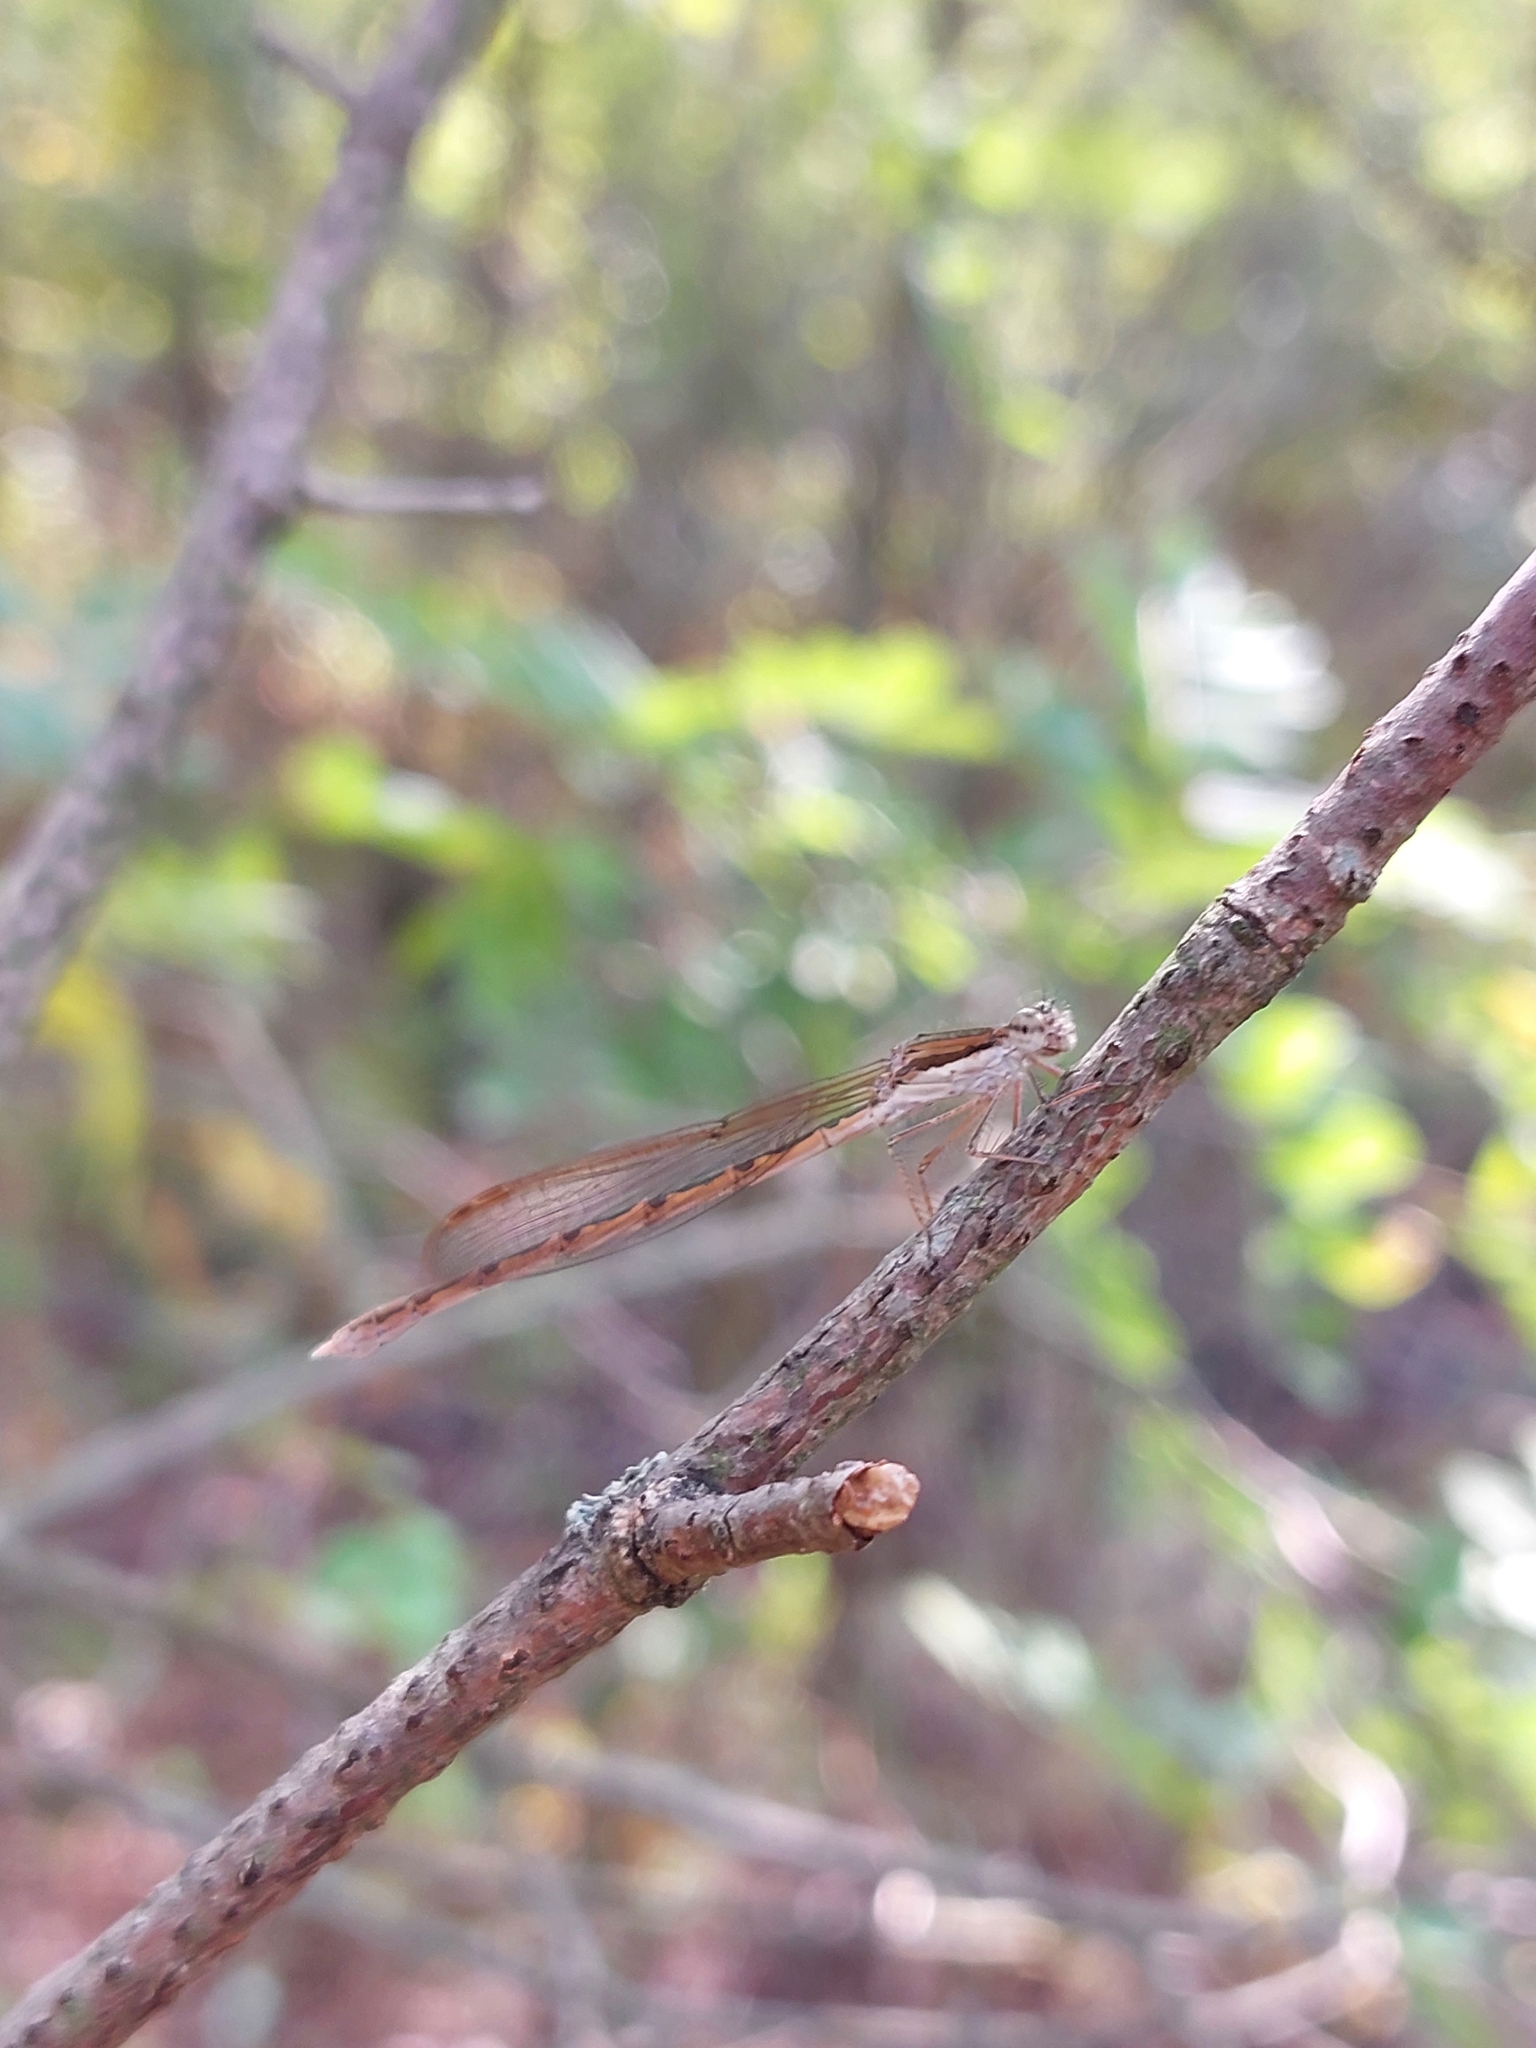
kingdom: Animalia
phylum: Arthropoda
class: Insecta
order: Odonata
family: Lestidae
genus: Sympecma
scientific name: Sympecma fusca
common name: Common winter damsel
